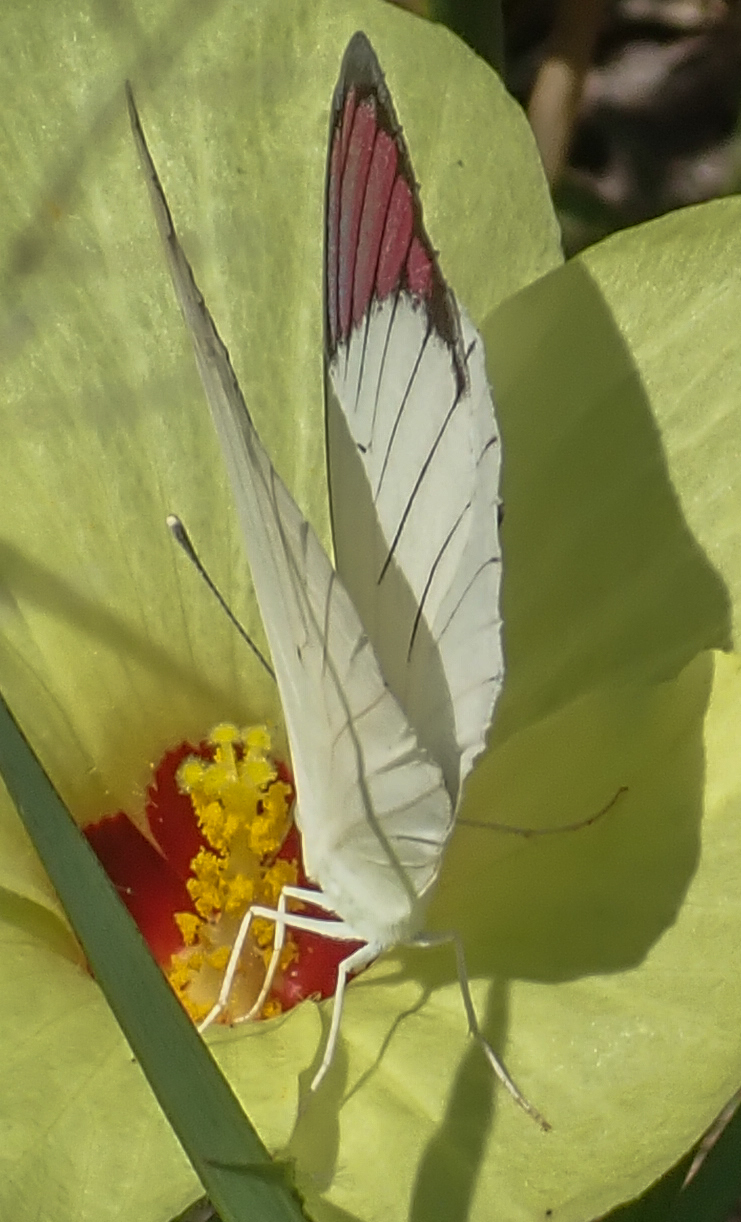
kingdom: Animalia
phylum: Arthropoda
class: Insecta
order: Lepidoptera
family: Pieridae
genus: Colotis
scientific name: Colotis regina
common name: Queen purple tip
